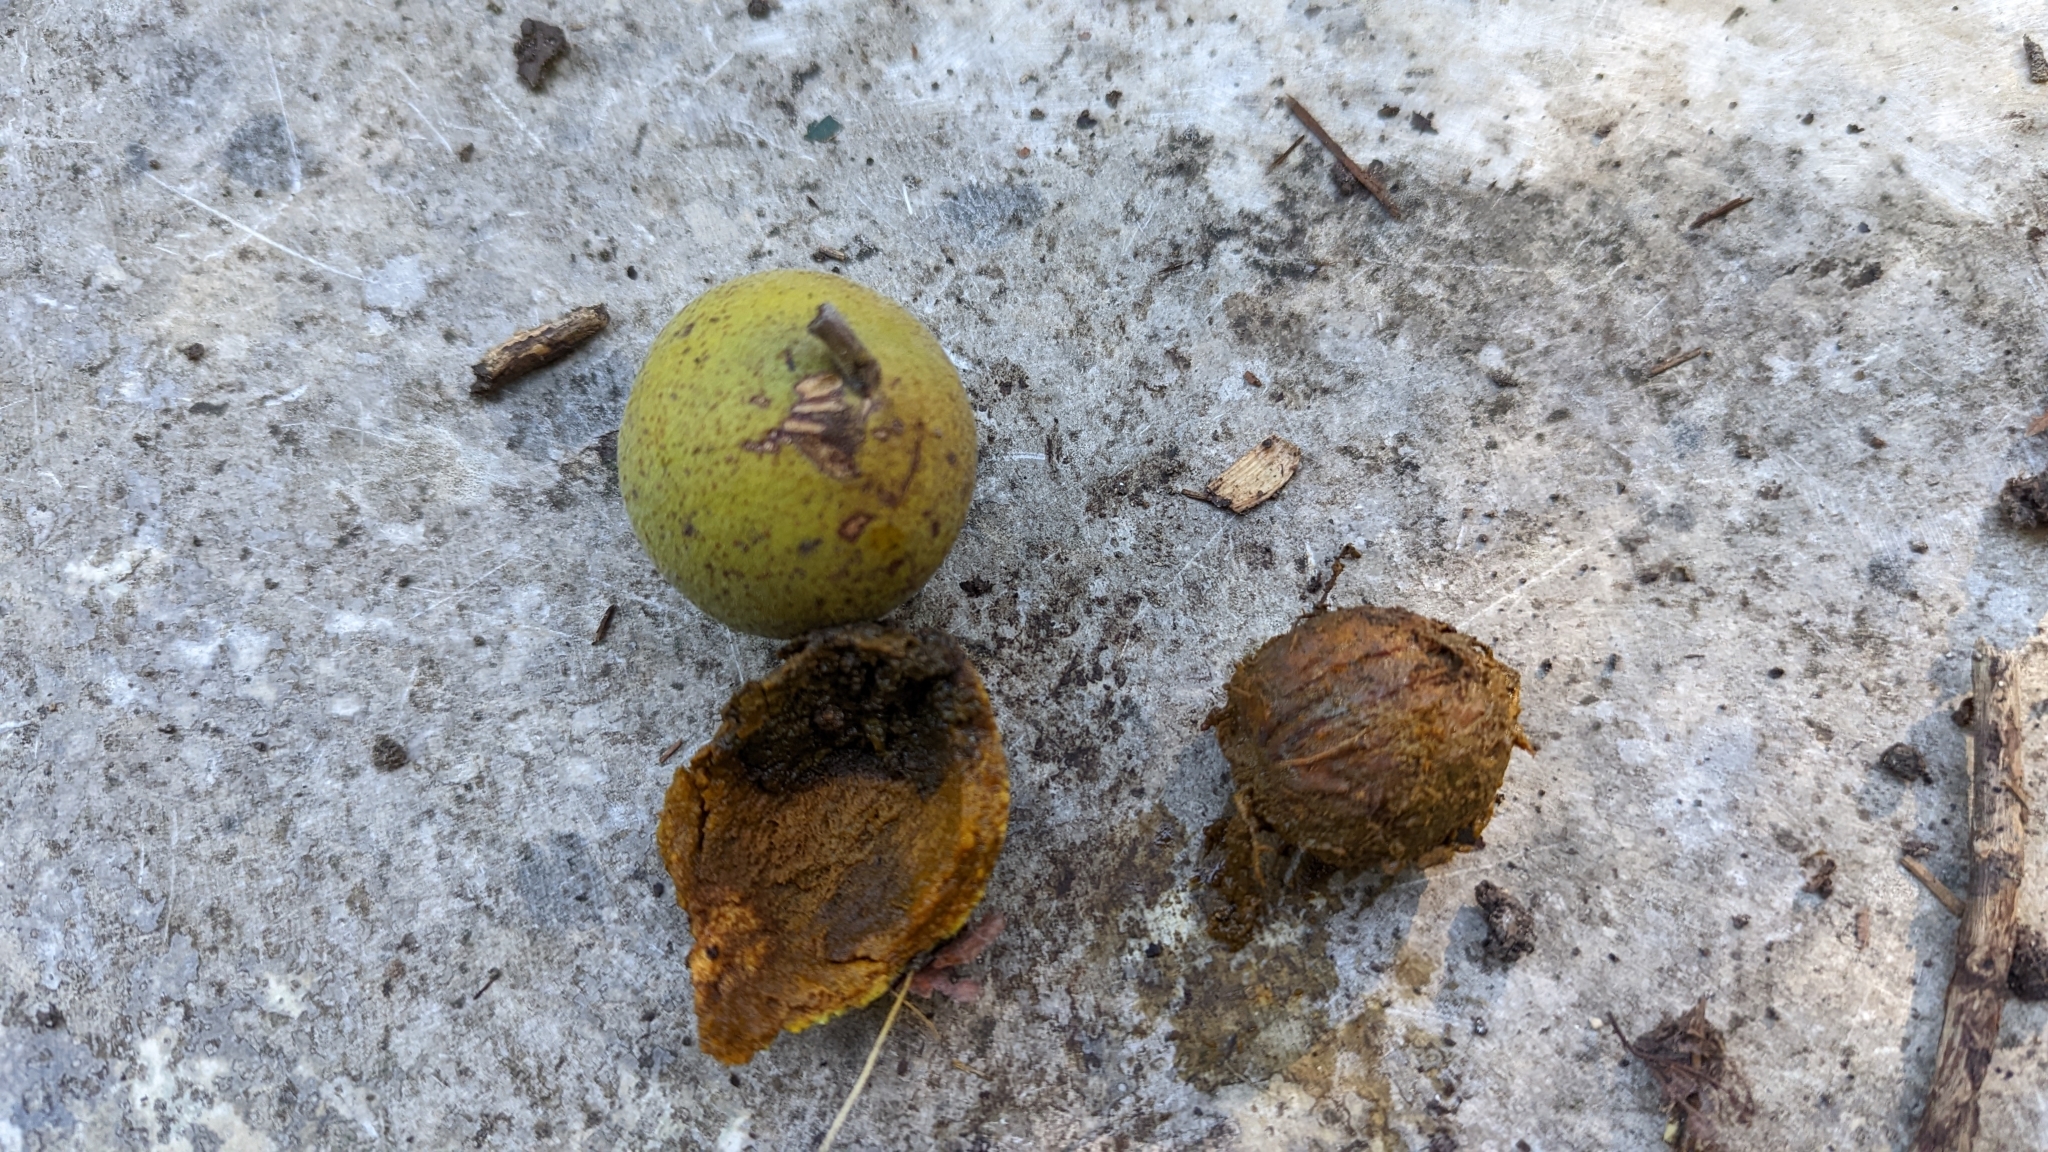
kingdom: Plantae
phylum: Tracheophyta
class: Magnoliopsida
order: Fagales
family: Juglandaceae
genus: Juglans
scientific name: Juglans major
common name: Arizona walnut
